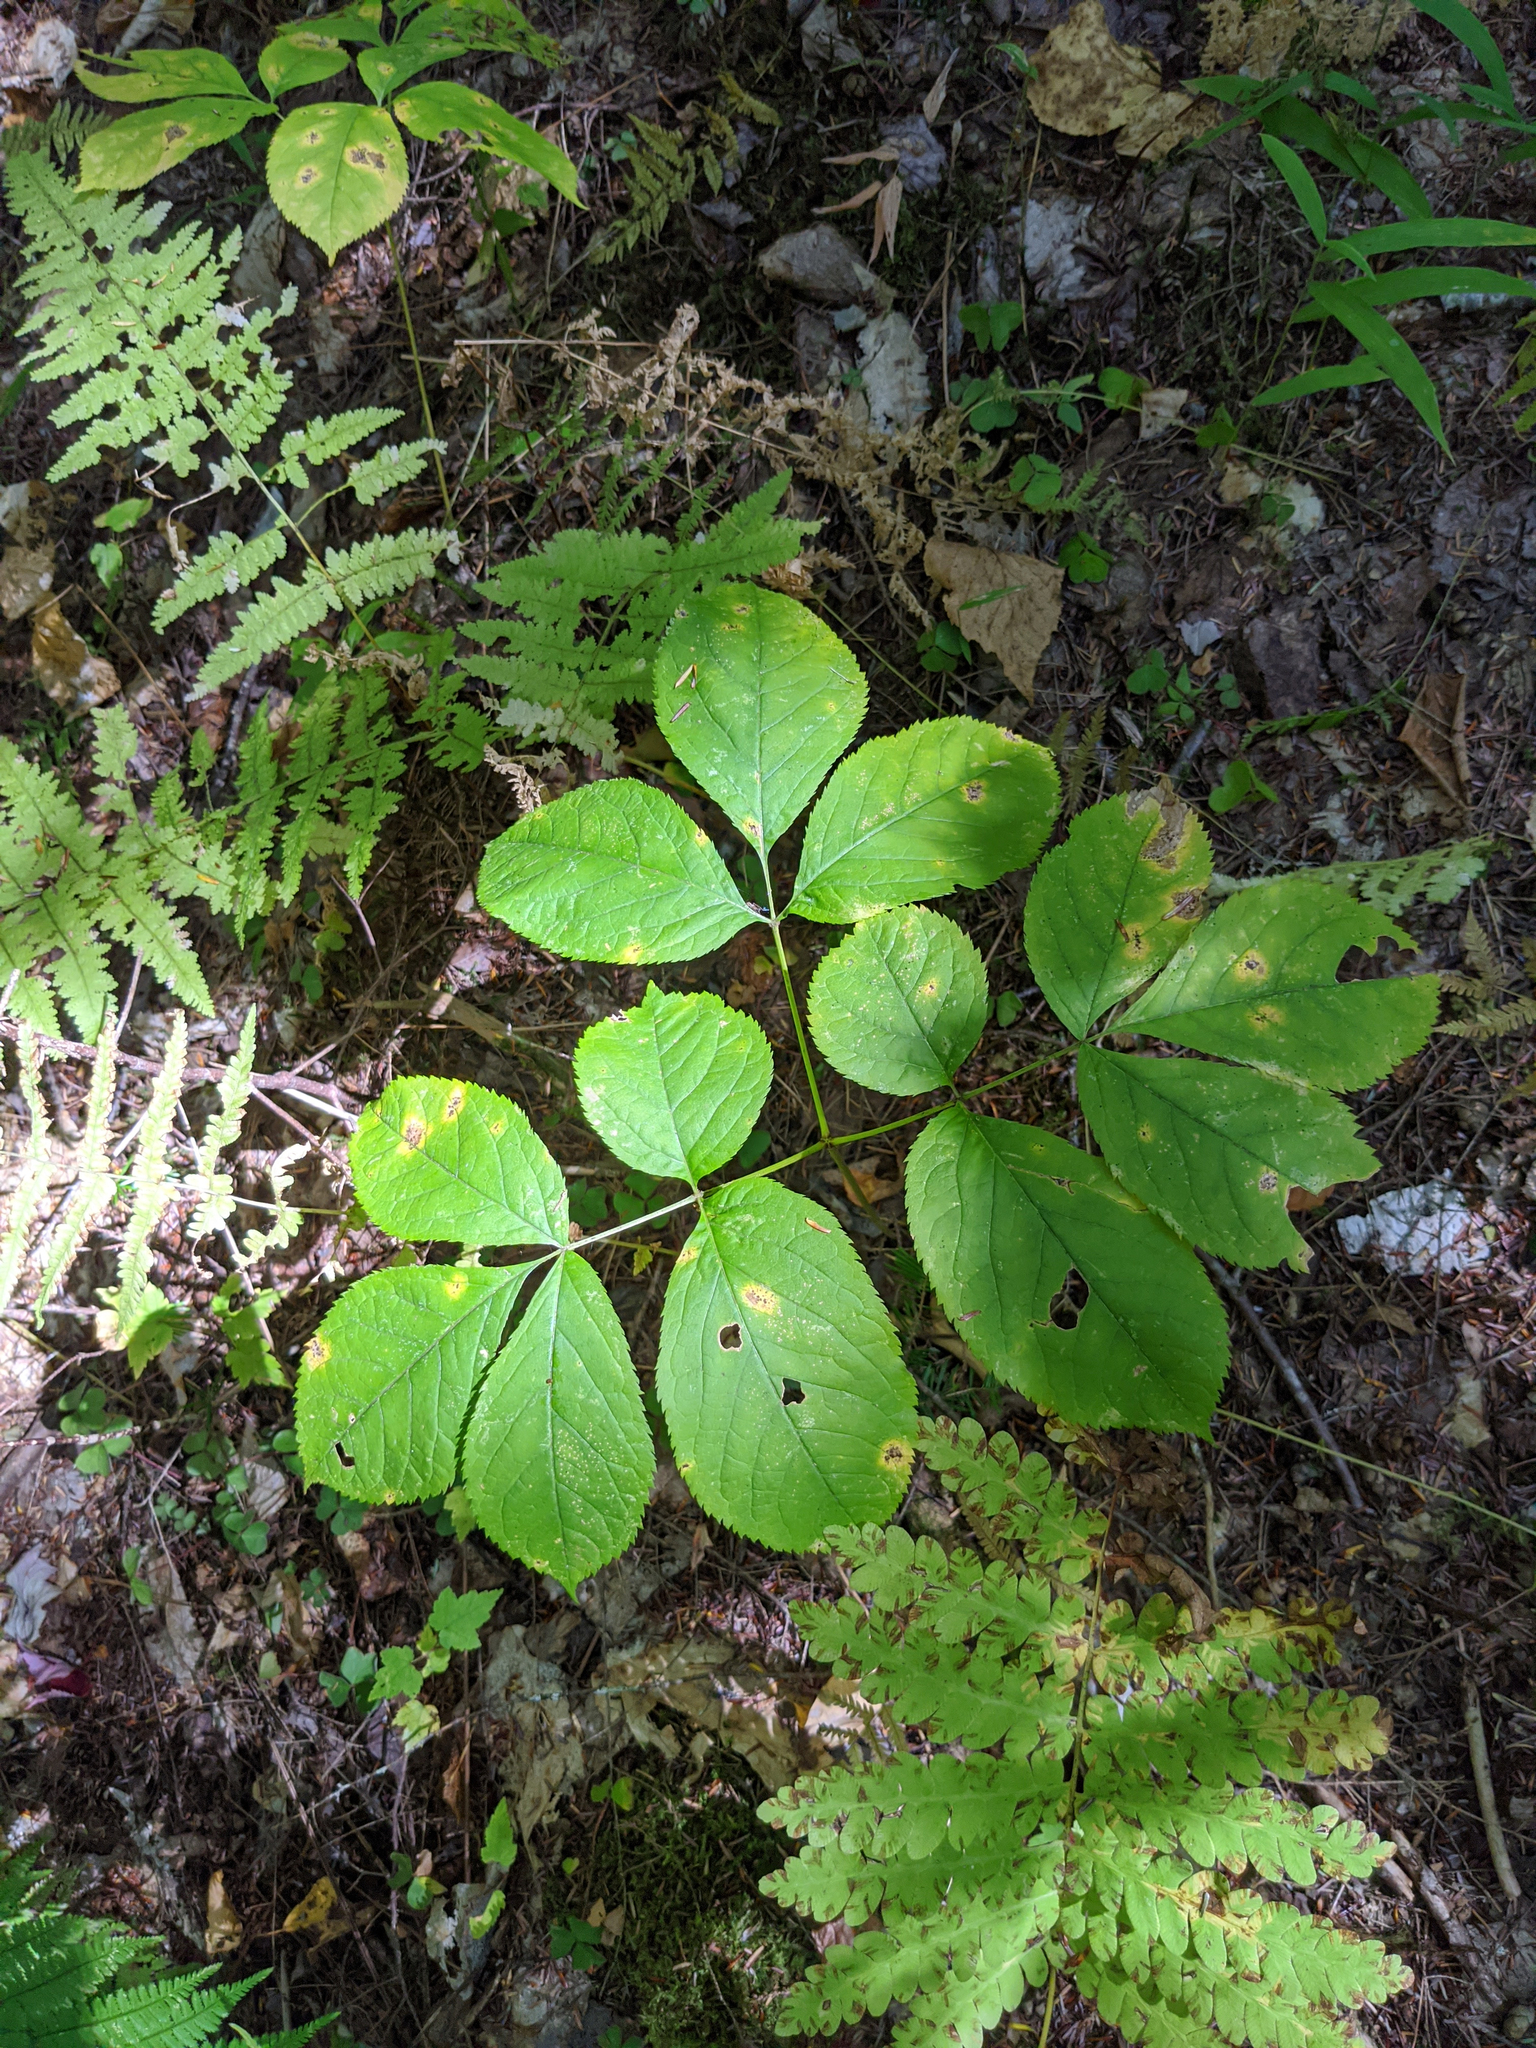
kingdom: Plantae
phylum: Tracheophyta
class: Magnoliopsida
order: Apiales
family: Araliaceae
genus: Aralia
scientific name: Aralia nudicaulis
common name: Wild sarsaparilla
